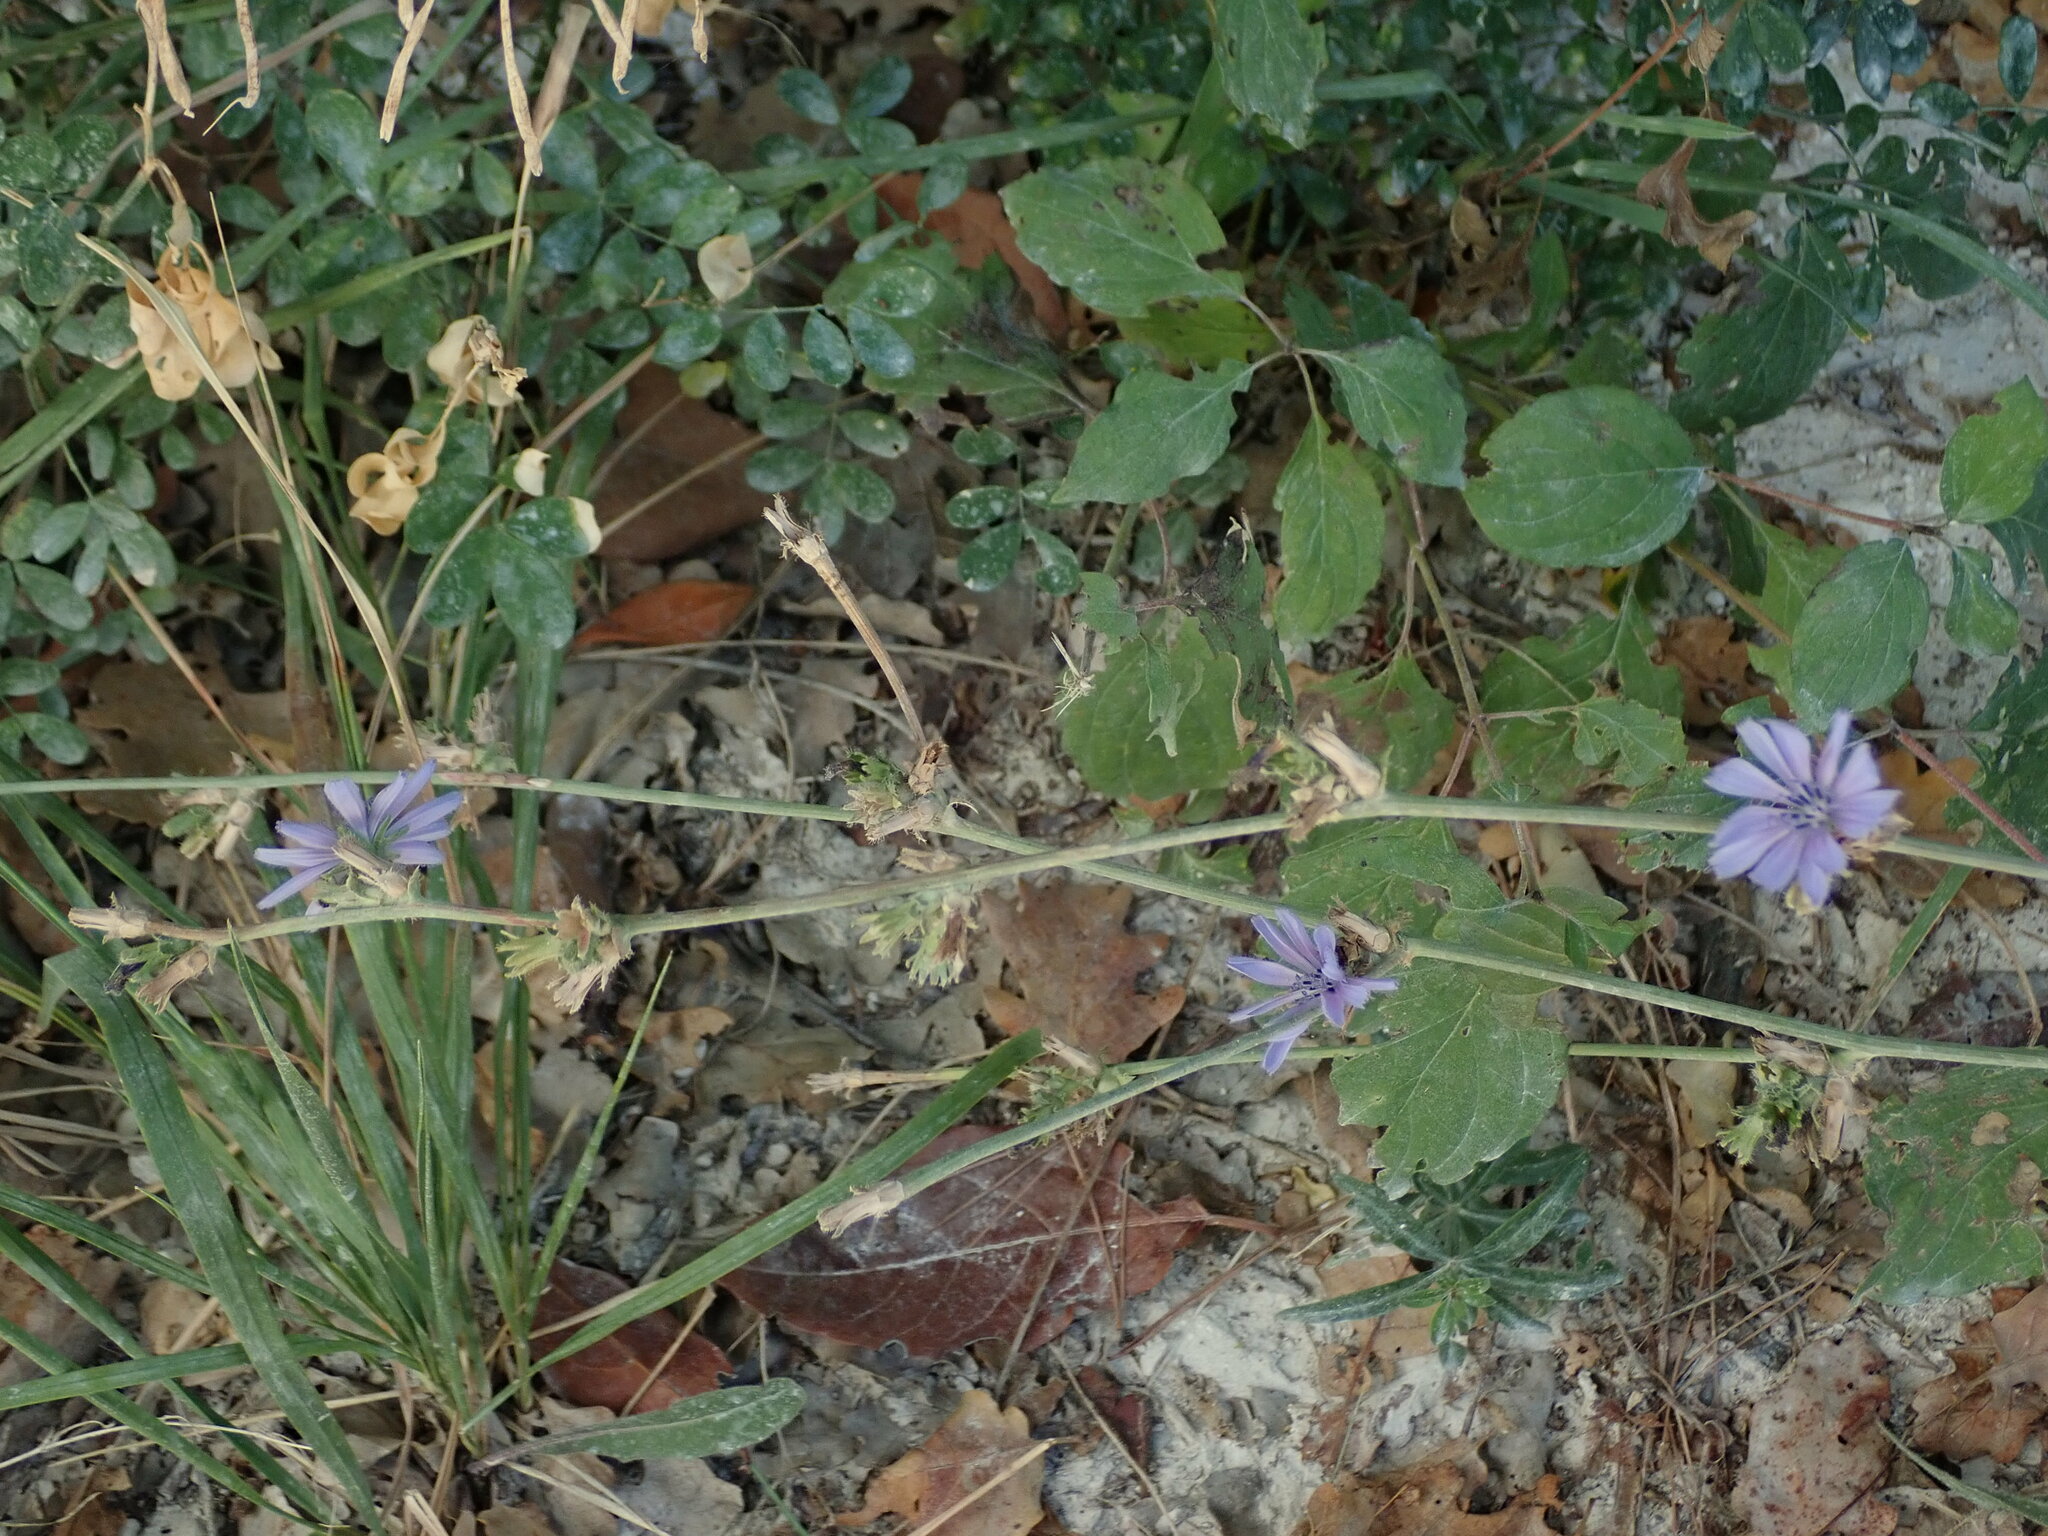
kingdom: Plantae
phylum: Tracheophyta
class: Magnoliopsida
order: Asterales
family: Asteraceae
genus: Cichorium
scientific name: Cichorium intybus
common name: Chicory
